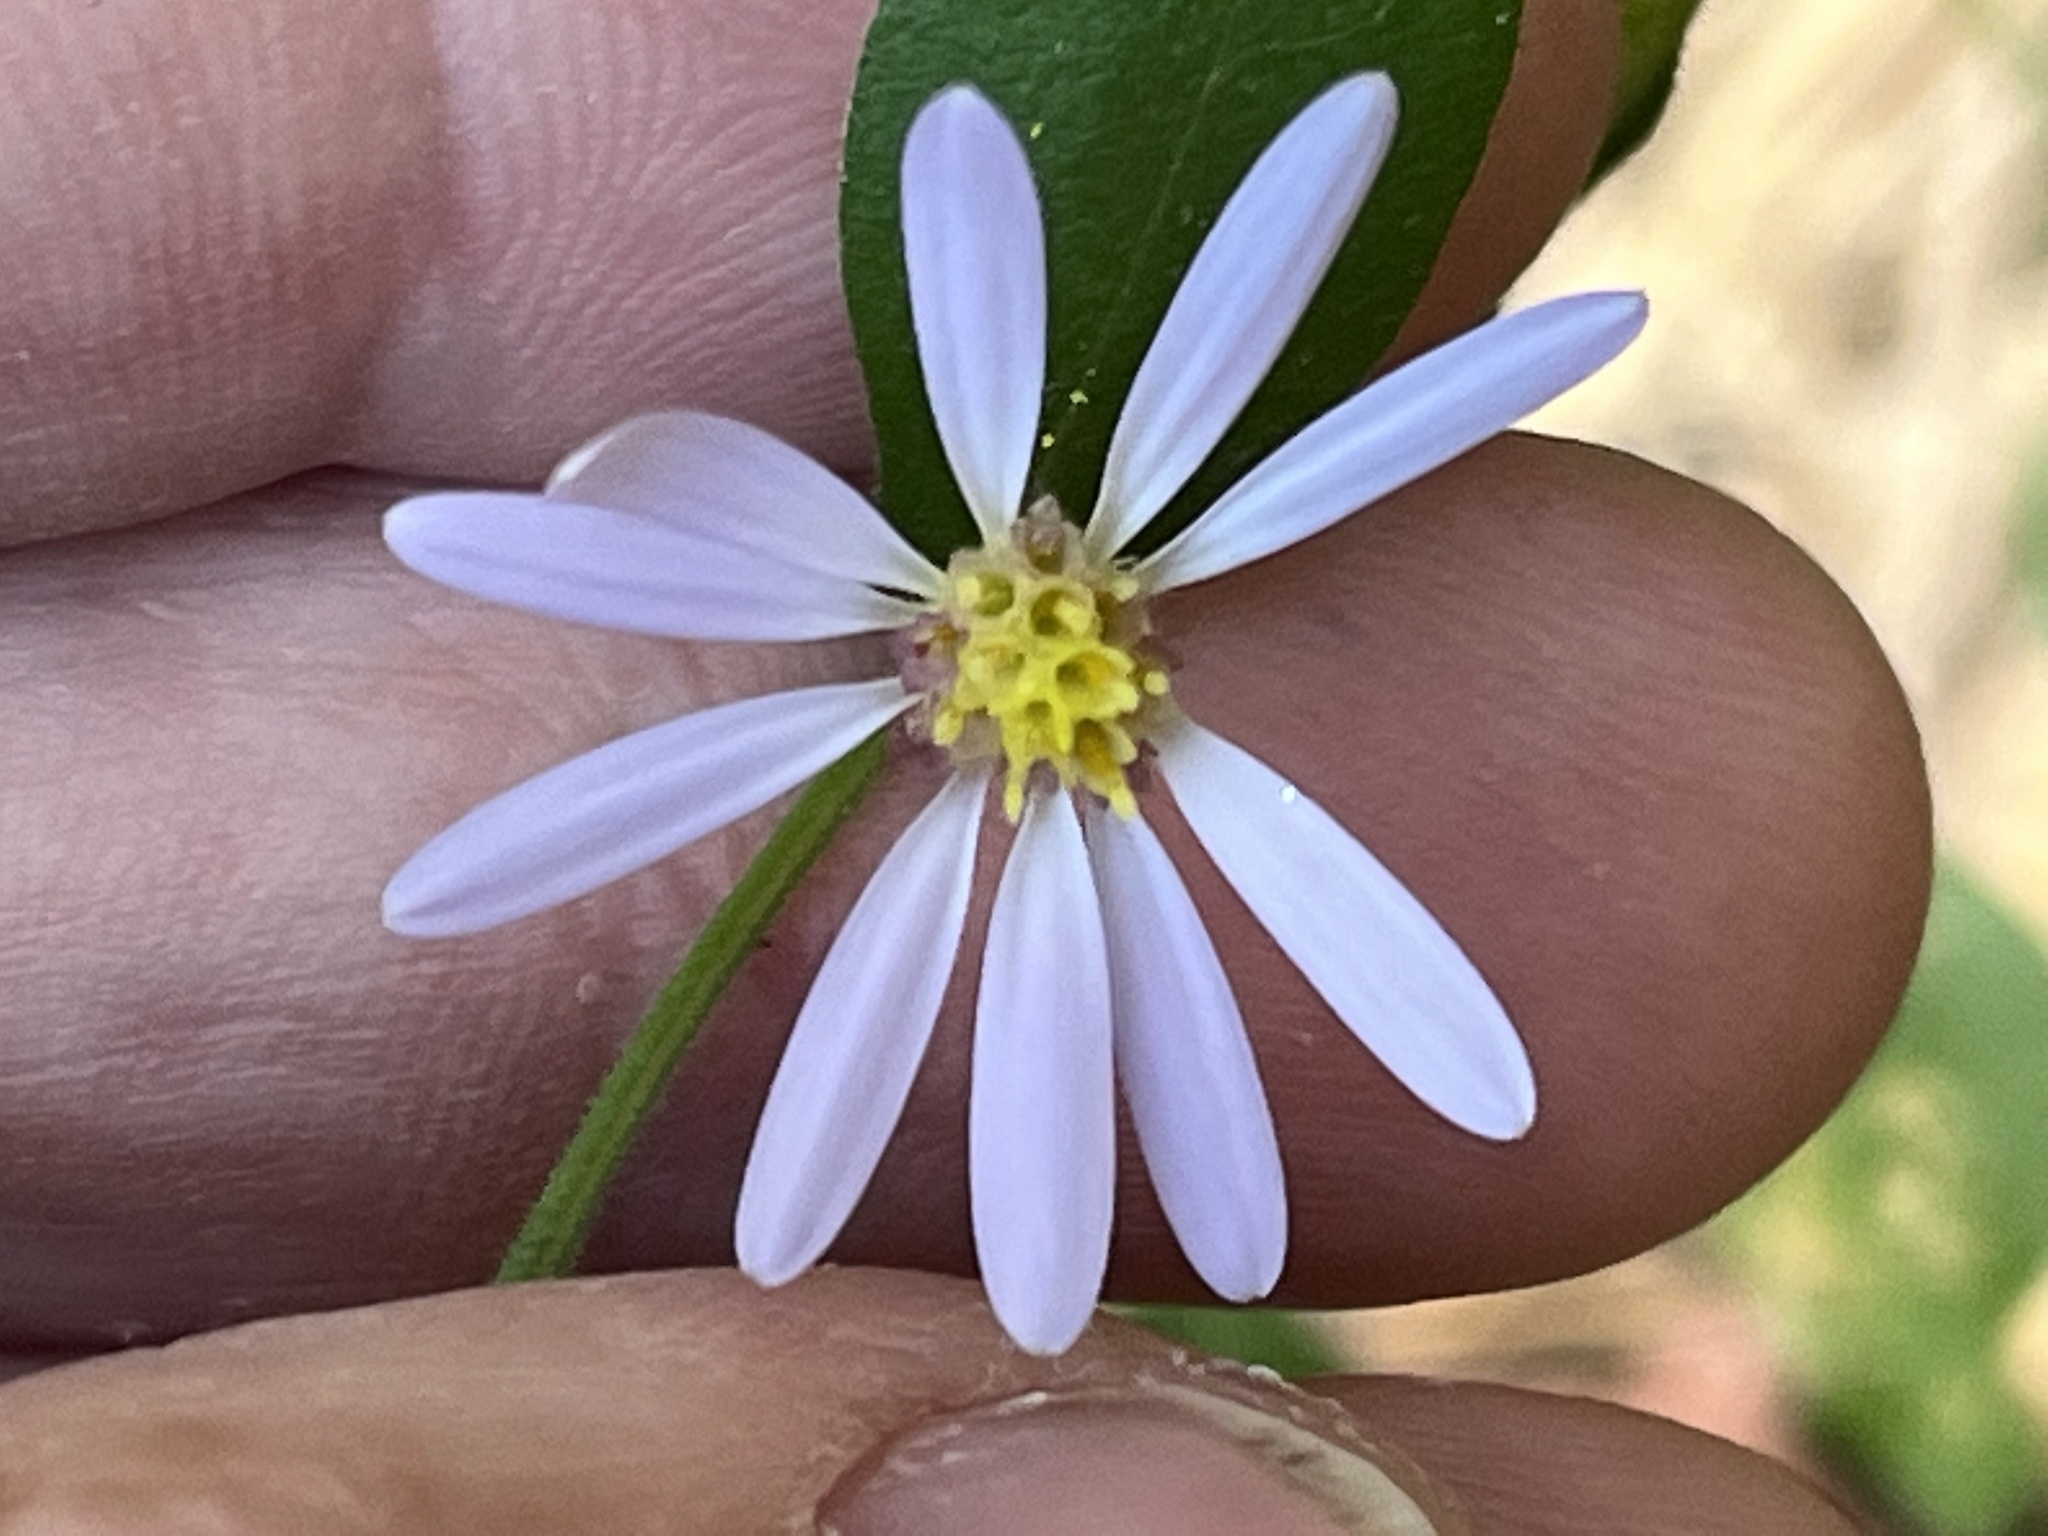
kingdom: Plantae
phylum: Tracheophyta
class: Magnoliopsida
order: Asterales
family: Asteraceae
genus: Symphyotrichum
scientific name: Symphyotrichum undulatum
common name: Clasping heart-leaf aster
